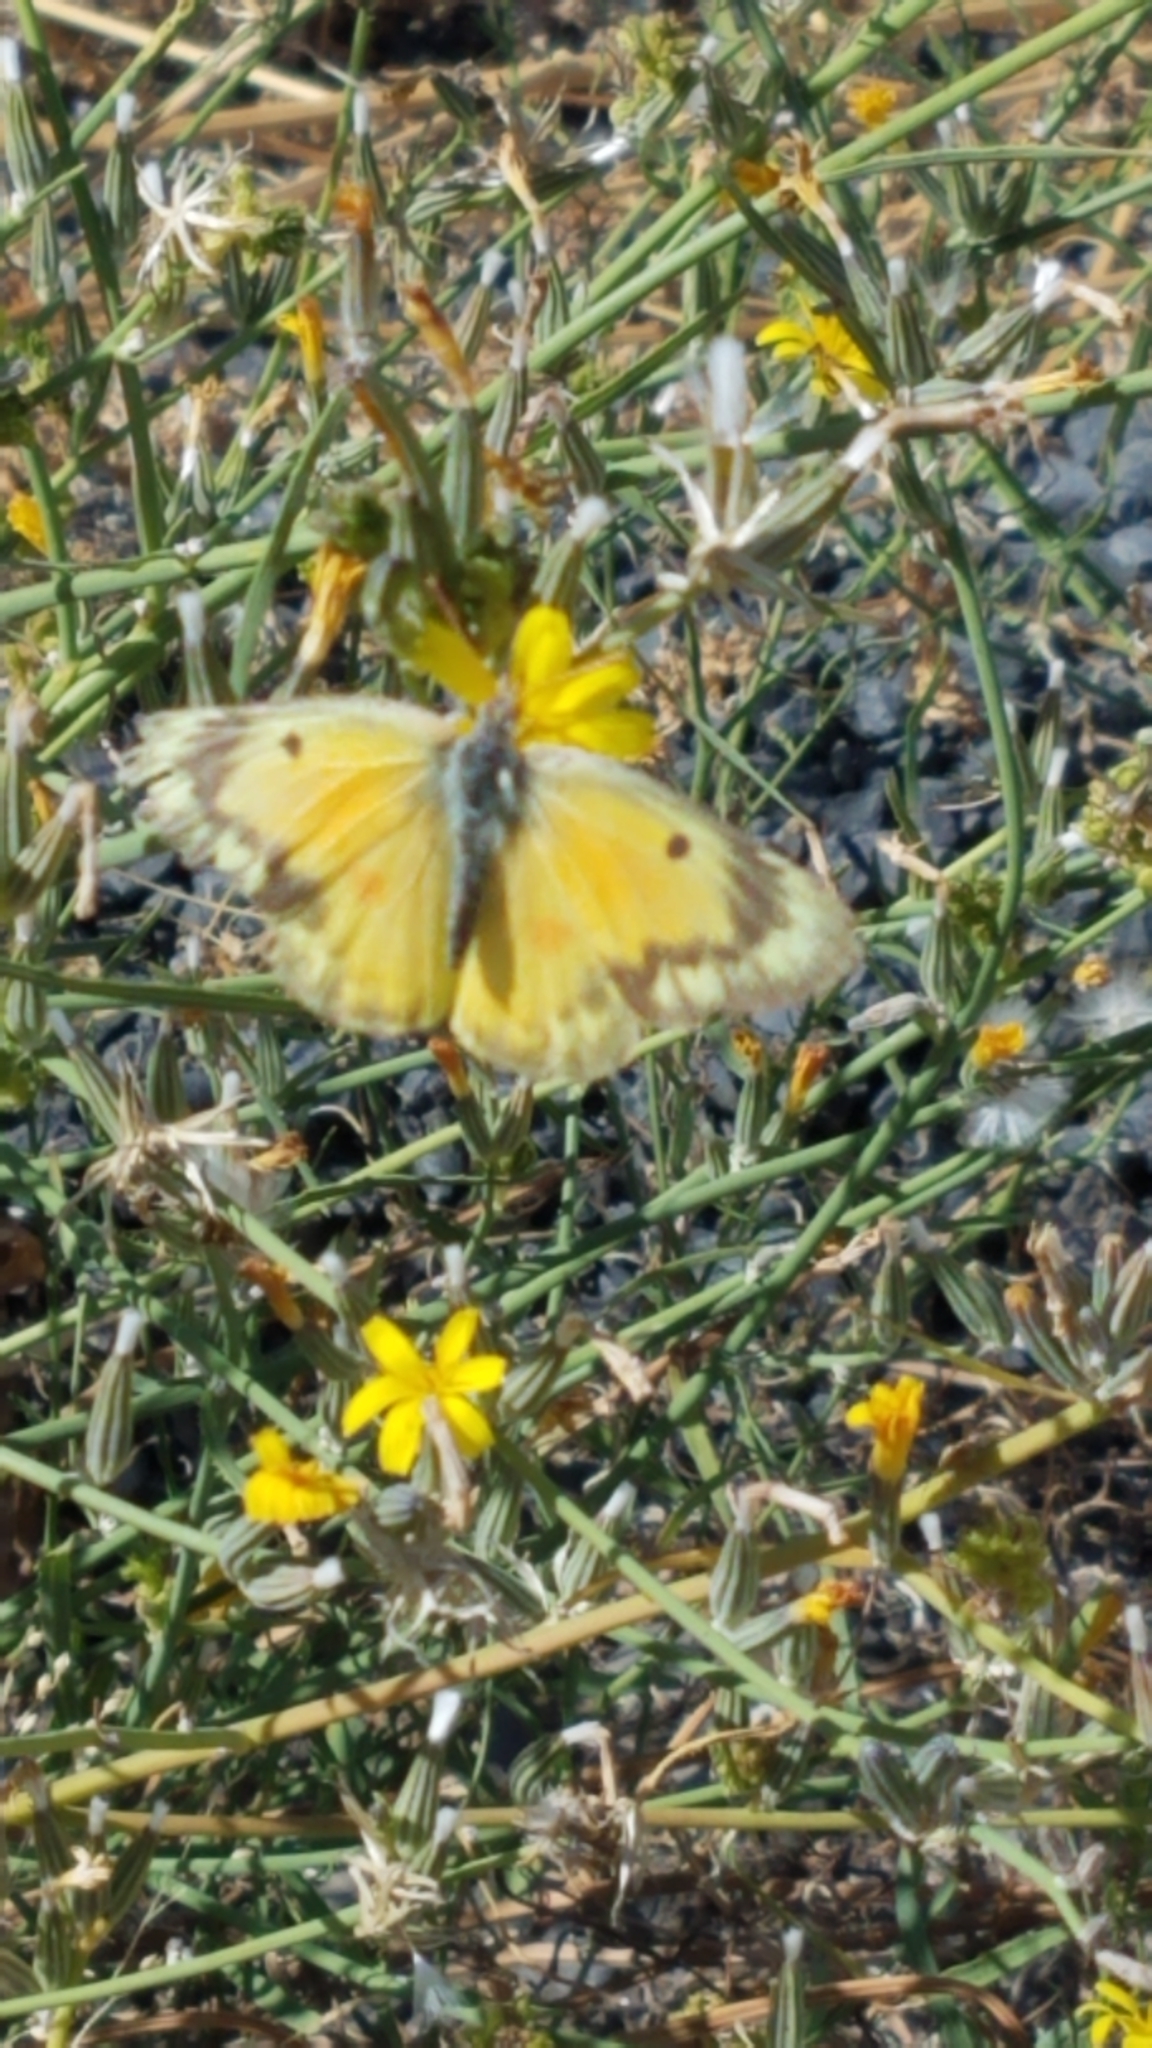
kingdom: Animalia
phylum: Arthropoda
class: Insecta
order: Lepidoptera
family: Pieridae
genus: Colias
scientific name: Colias eurytheme
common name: Alfalfa butterfly
